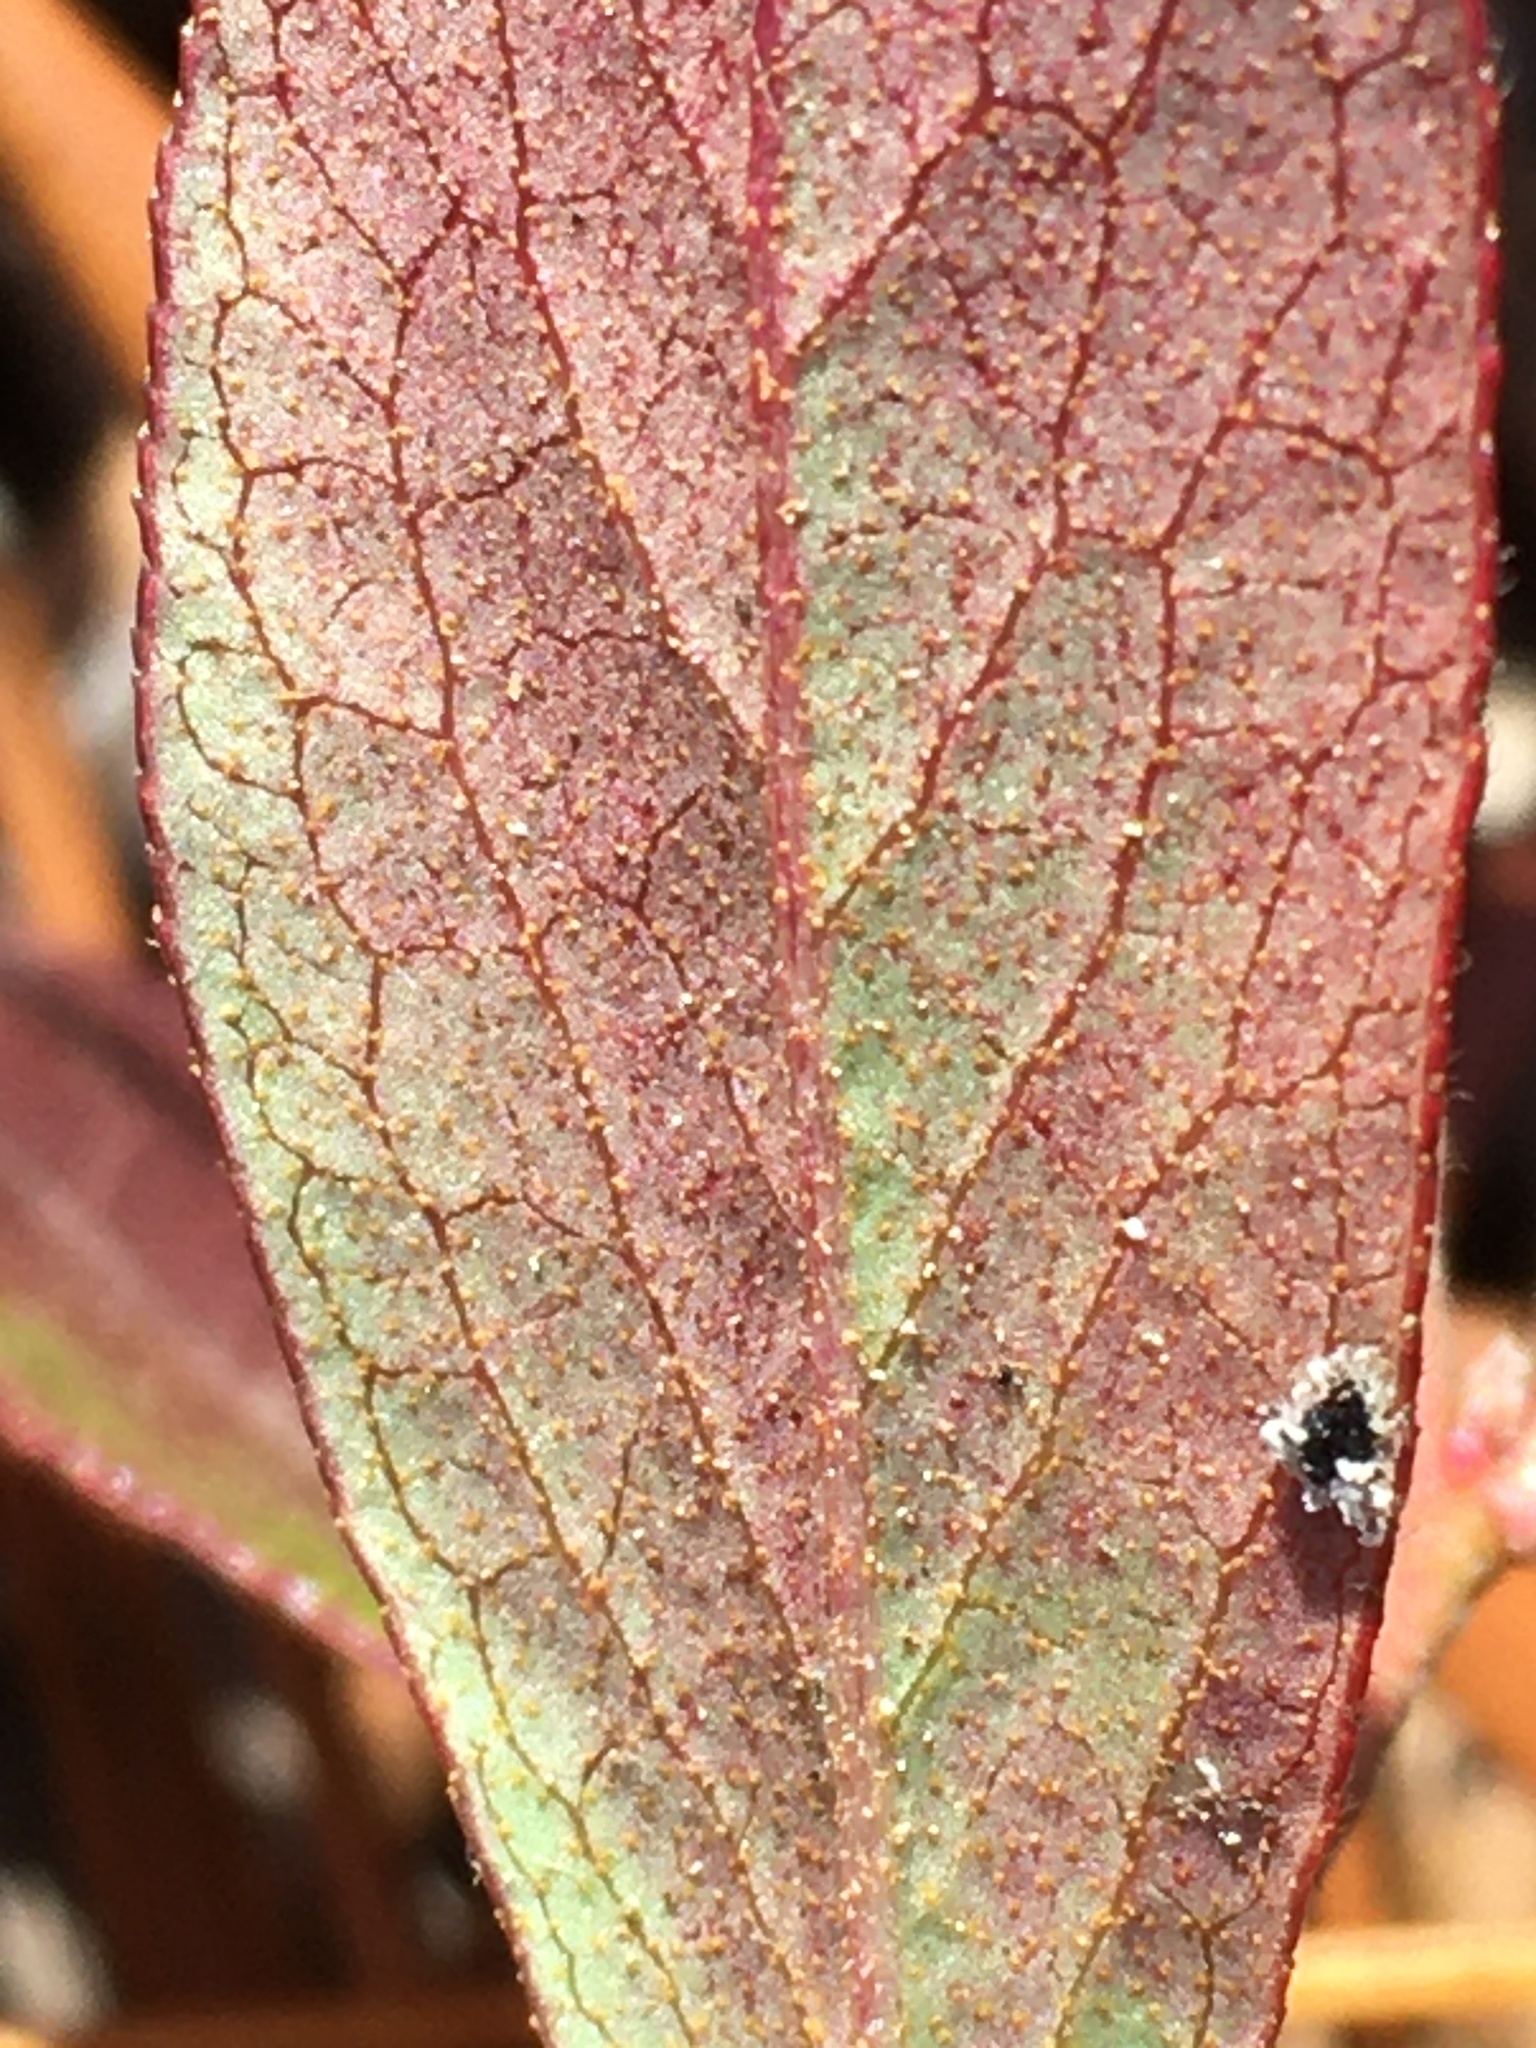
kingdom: Plantae
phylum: Tracheophyta
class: Magnoliopsida
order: Ericales
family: Ericaceae
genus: Gaylussacia
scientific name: Gaylussacia dumosa
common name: Dwarf huckleberry
